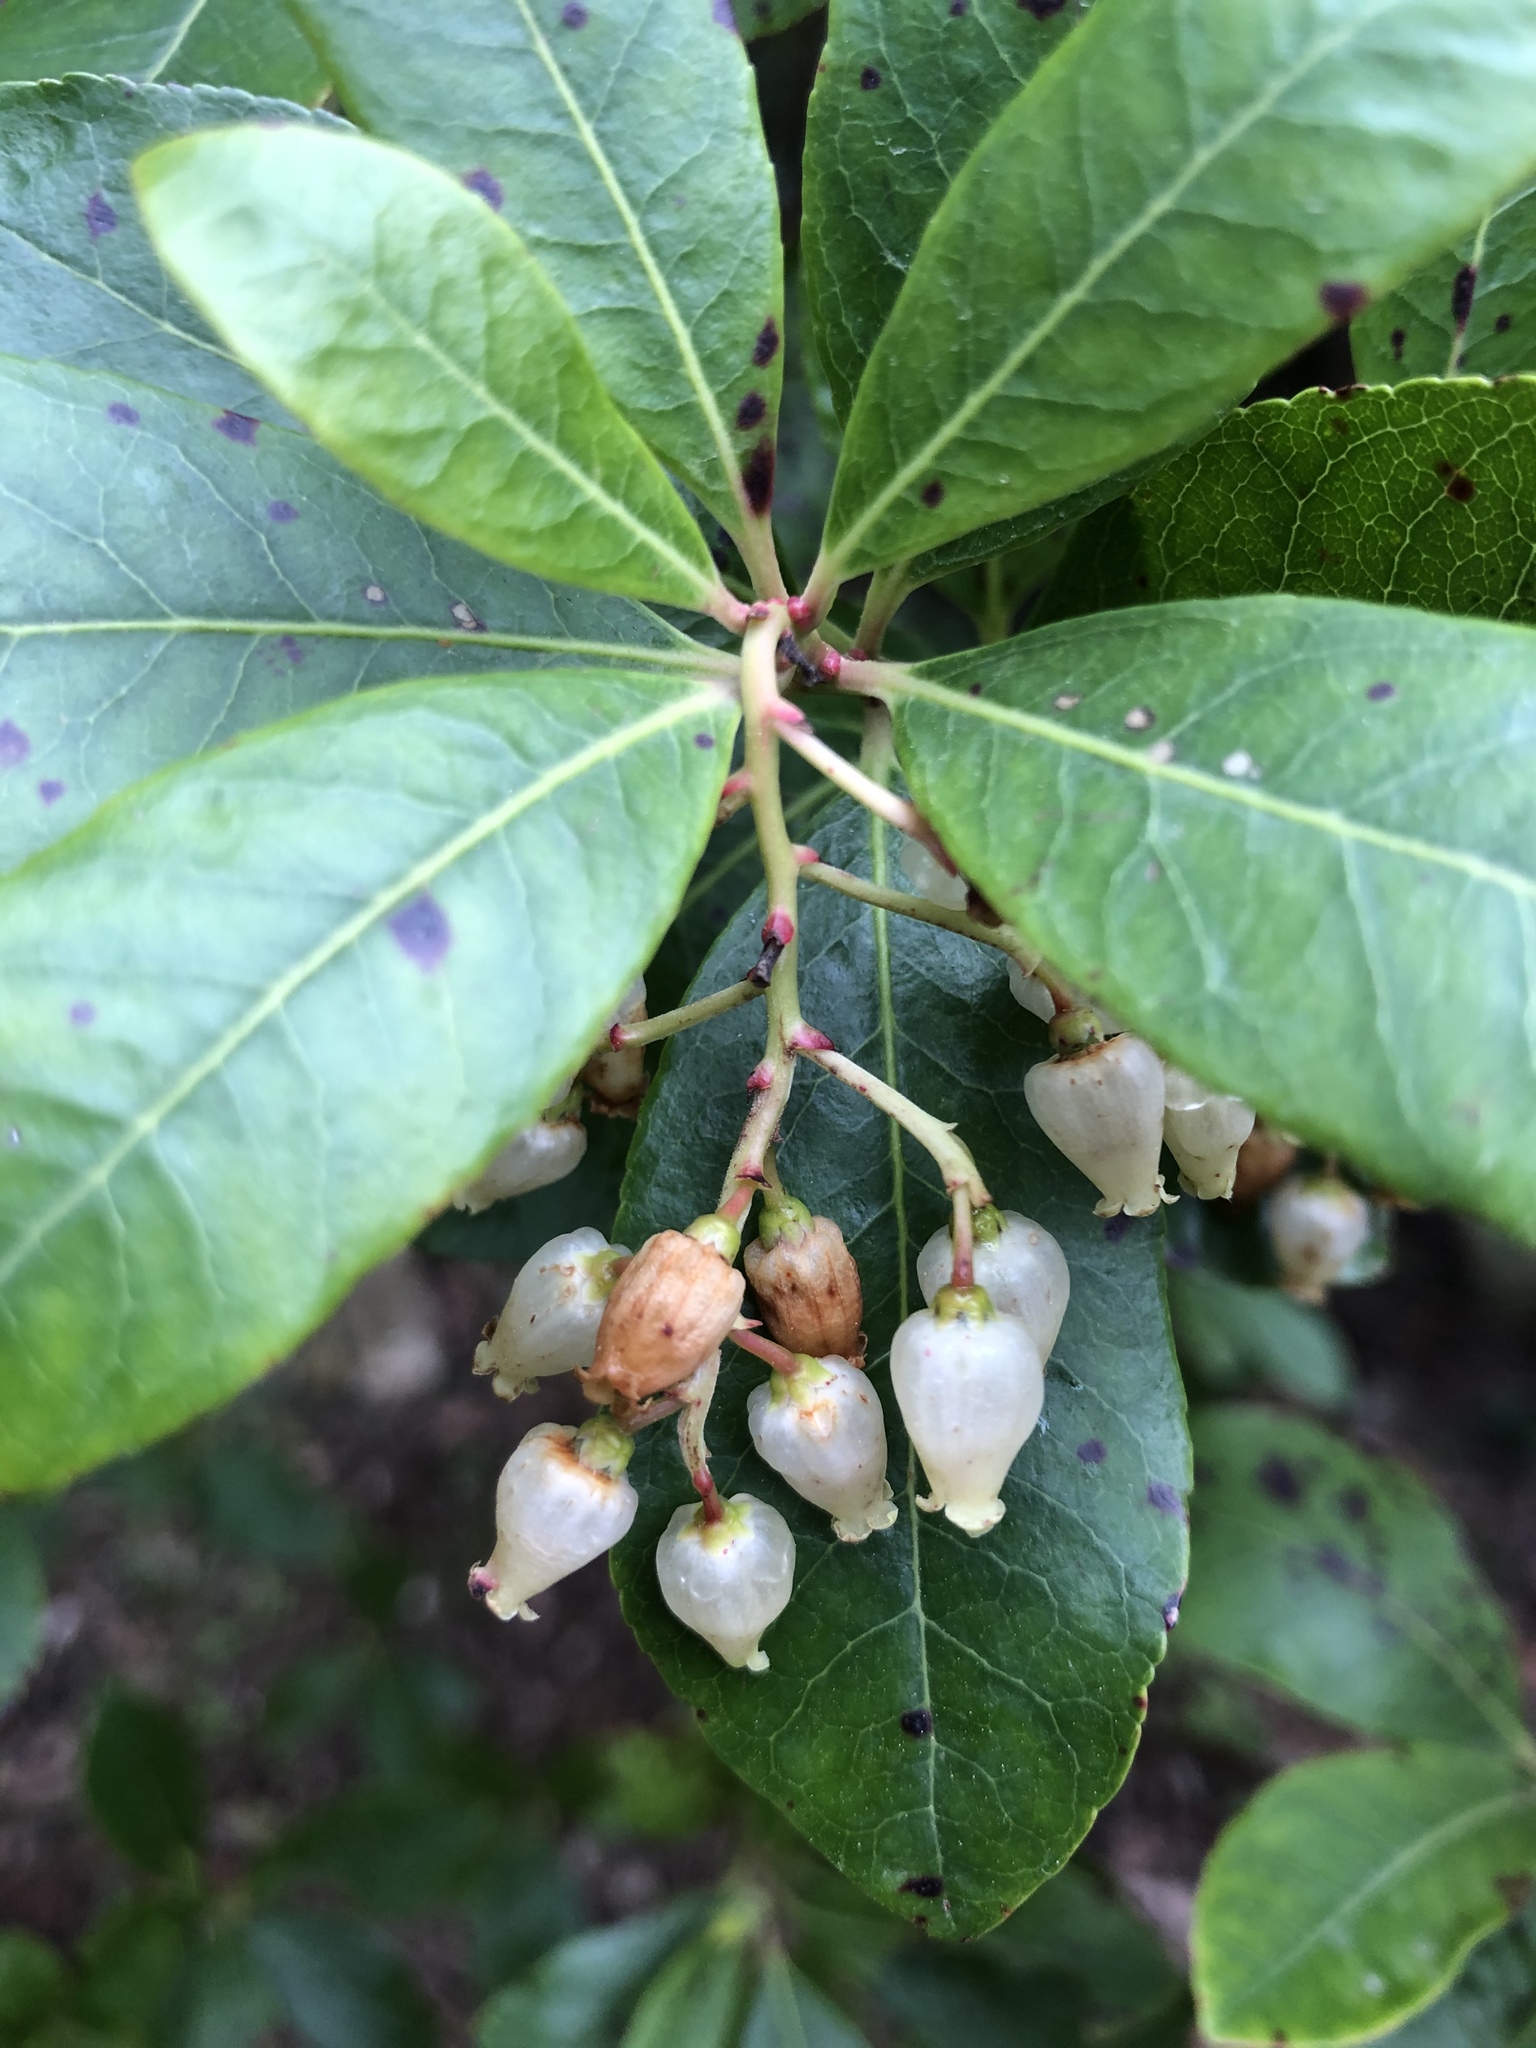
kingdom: Plantae
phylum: Tracheophyta
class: Magnoliopsida
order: Ericales
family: Ericaceae
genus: Arbutus
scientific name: Arbutus unedo
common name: Strawberry-tree
